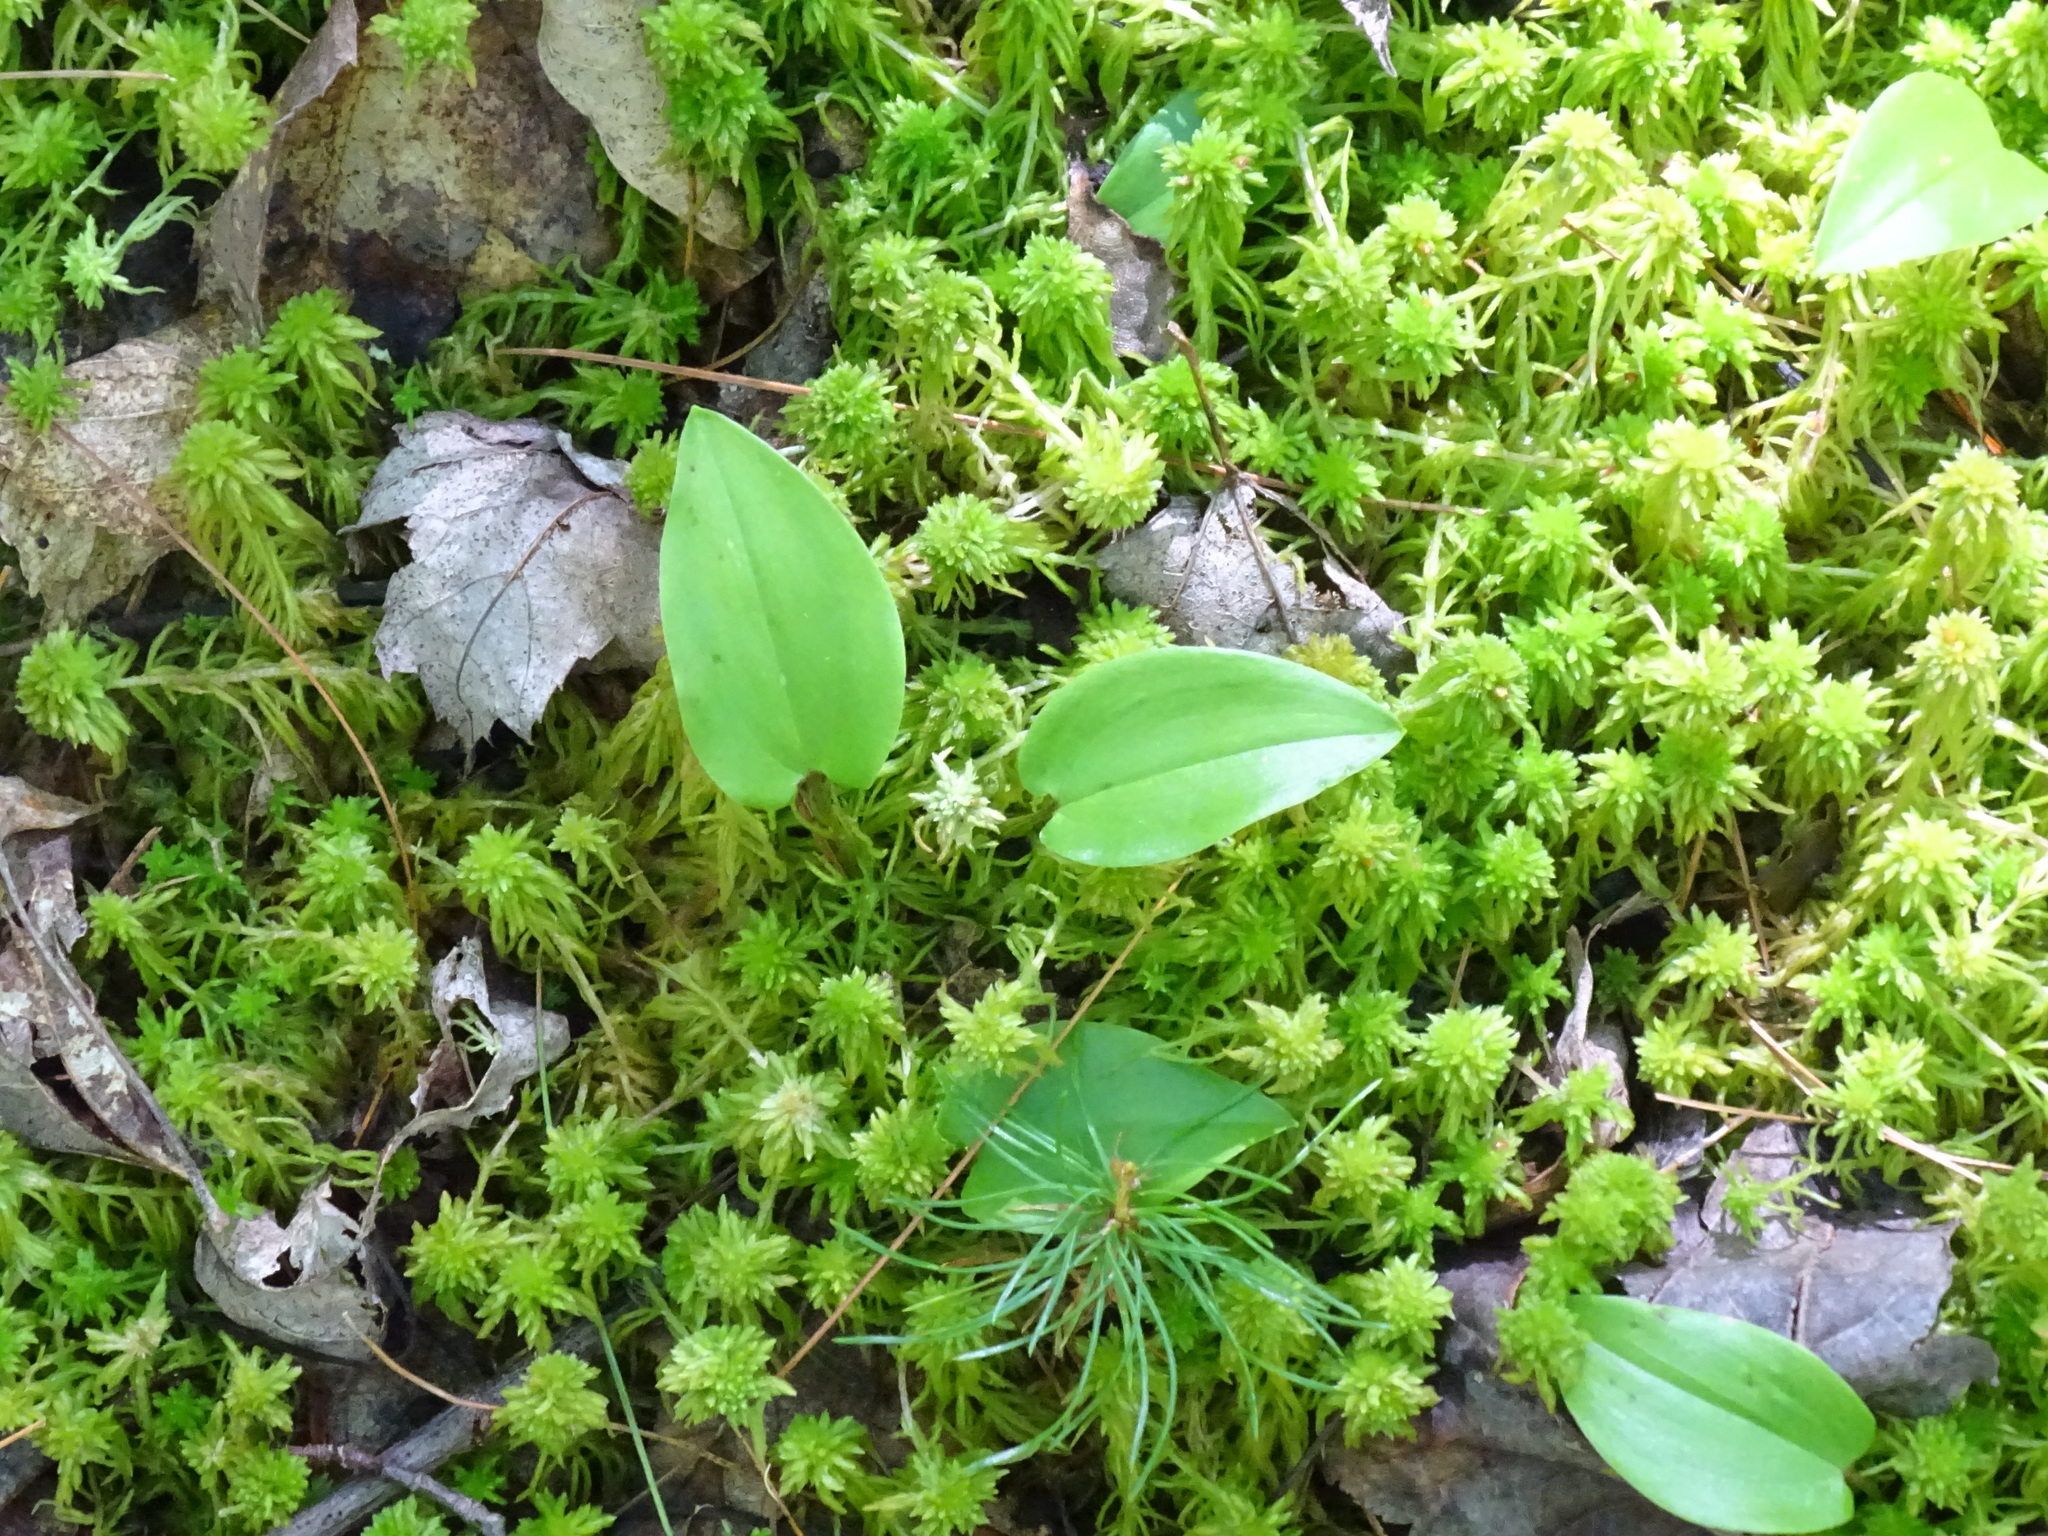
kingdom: Plantae
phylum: Tracheophyta
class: Liliopsida
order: Asparagales
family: Asparagaceae
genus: Maianthemum
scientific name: Maianthemum canadense
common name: False lily-of-the-valley
